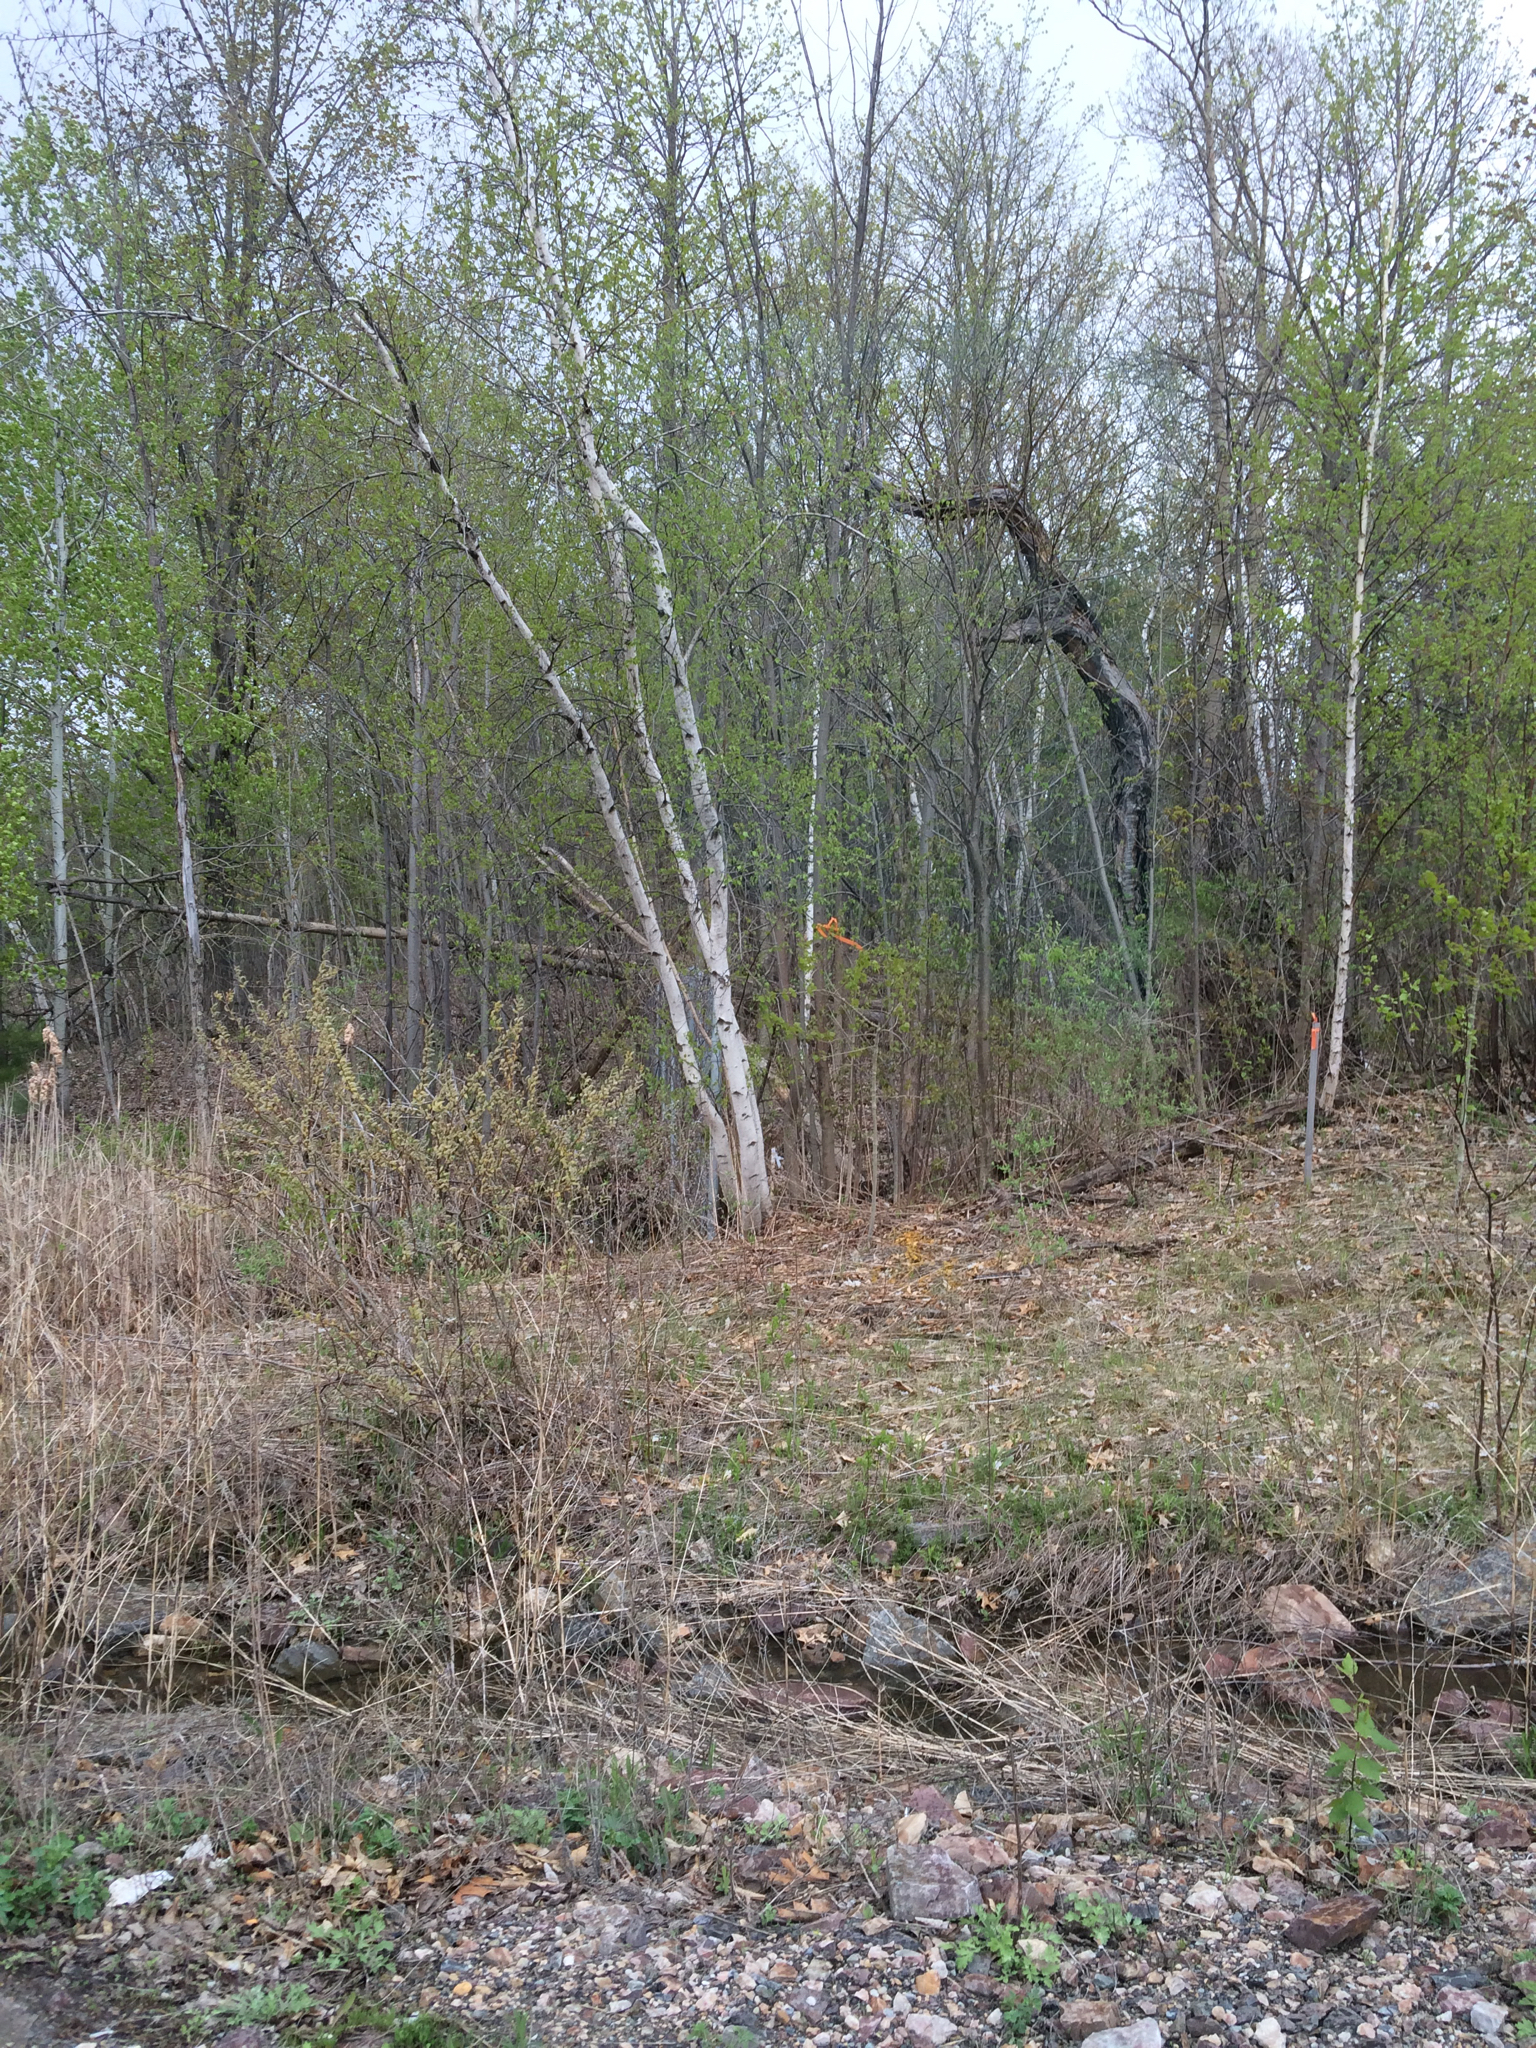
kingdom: Plantae
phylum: Tracheophyta
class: Magnoliopsida
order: Fagales
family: Betulaceae
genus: Betula
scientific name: Betula populifolia
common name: Fire birch
